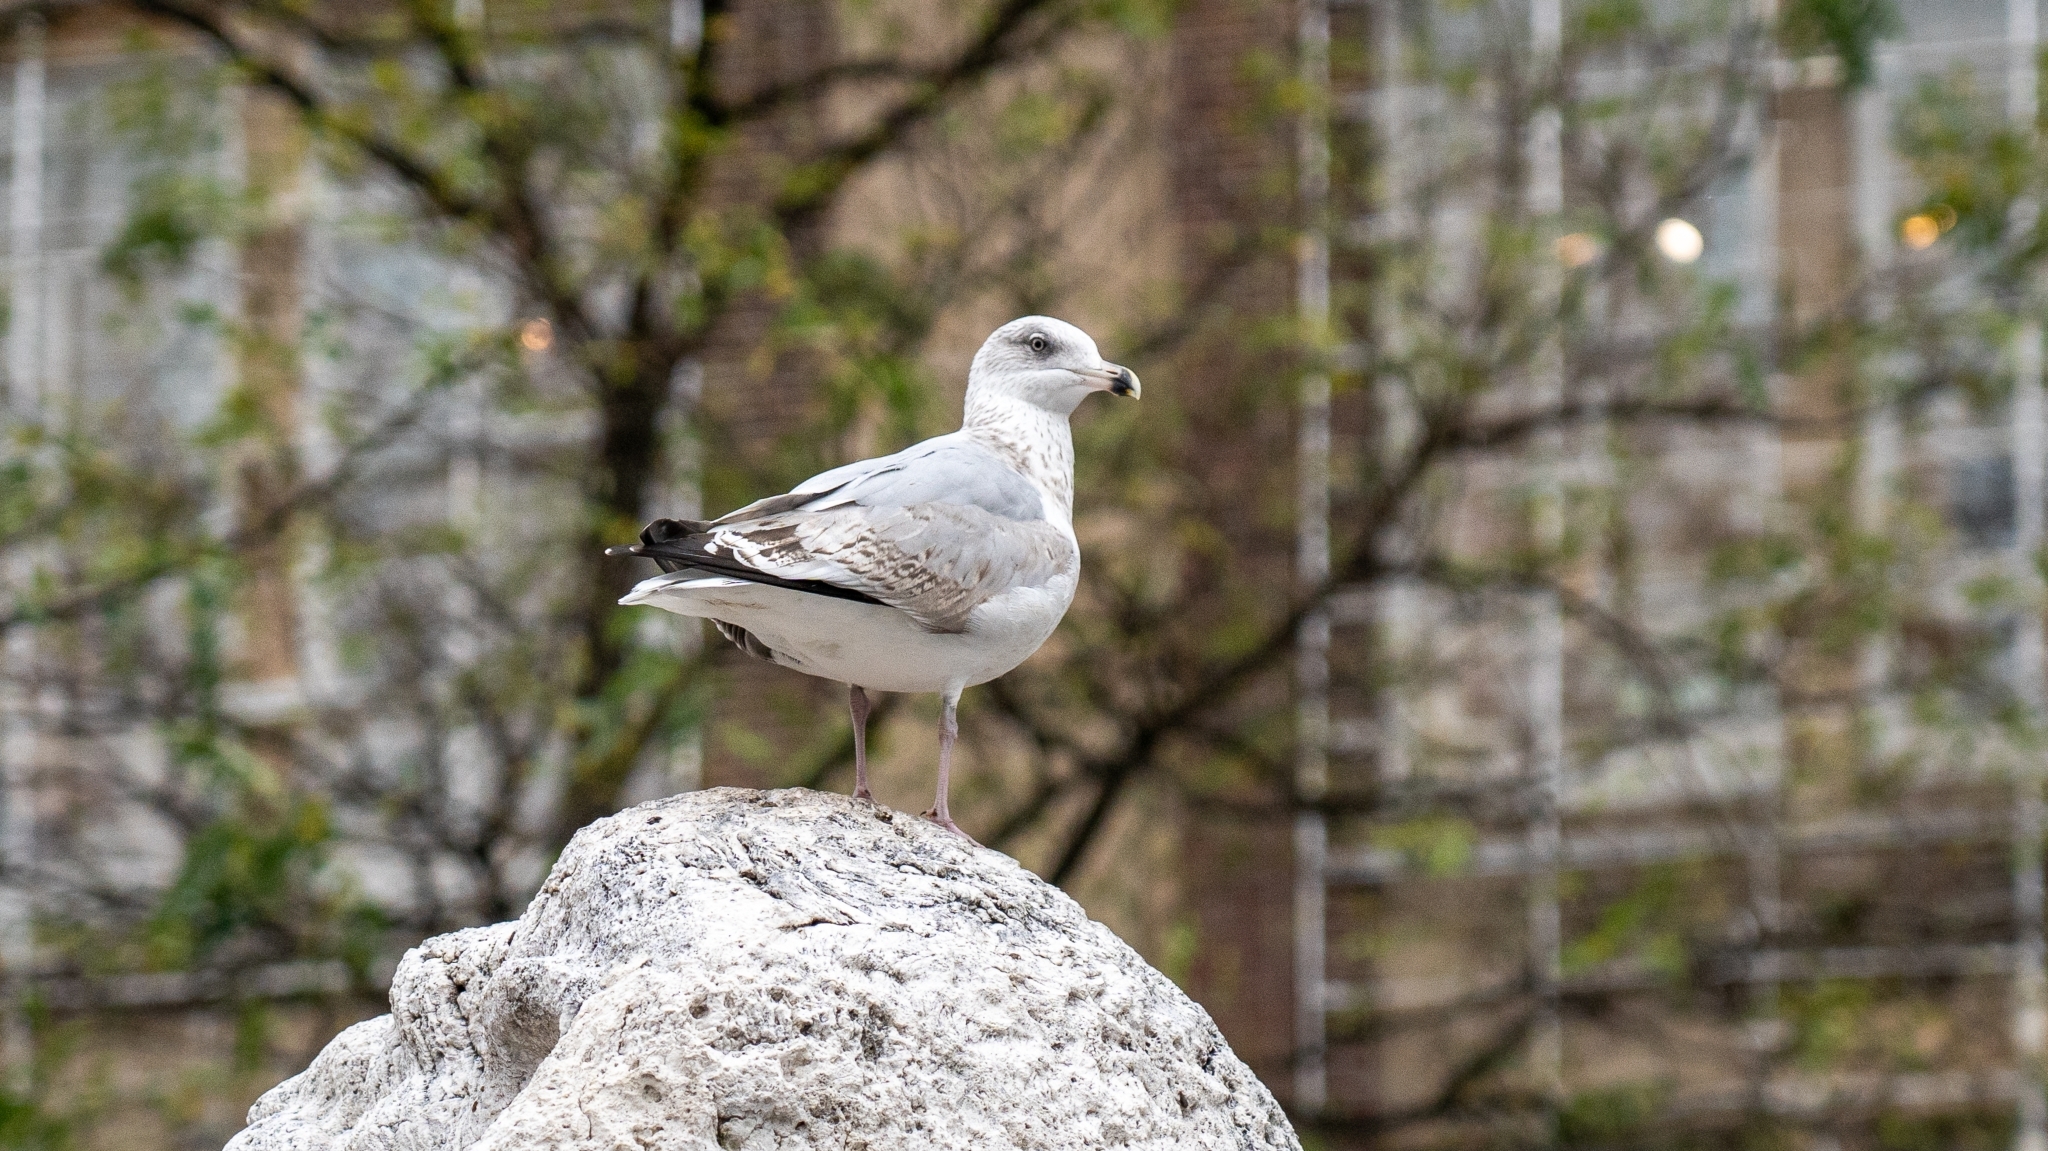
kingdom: Animalia
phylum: Chordata
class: Aves
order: Charadriiformes
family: Laridae
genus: Larus
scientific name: Larus argentatus
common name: Herring gull
